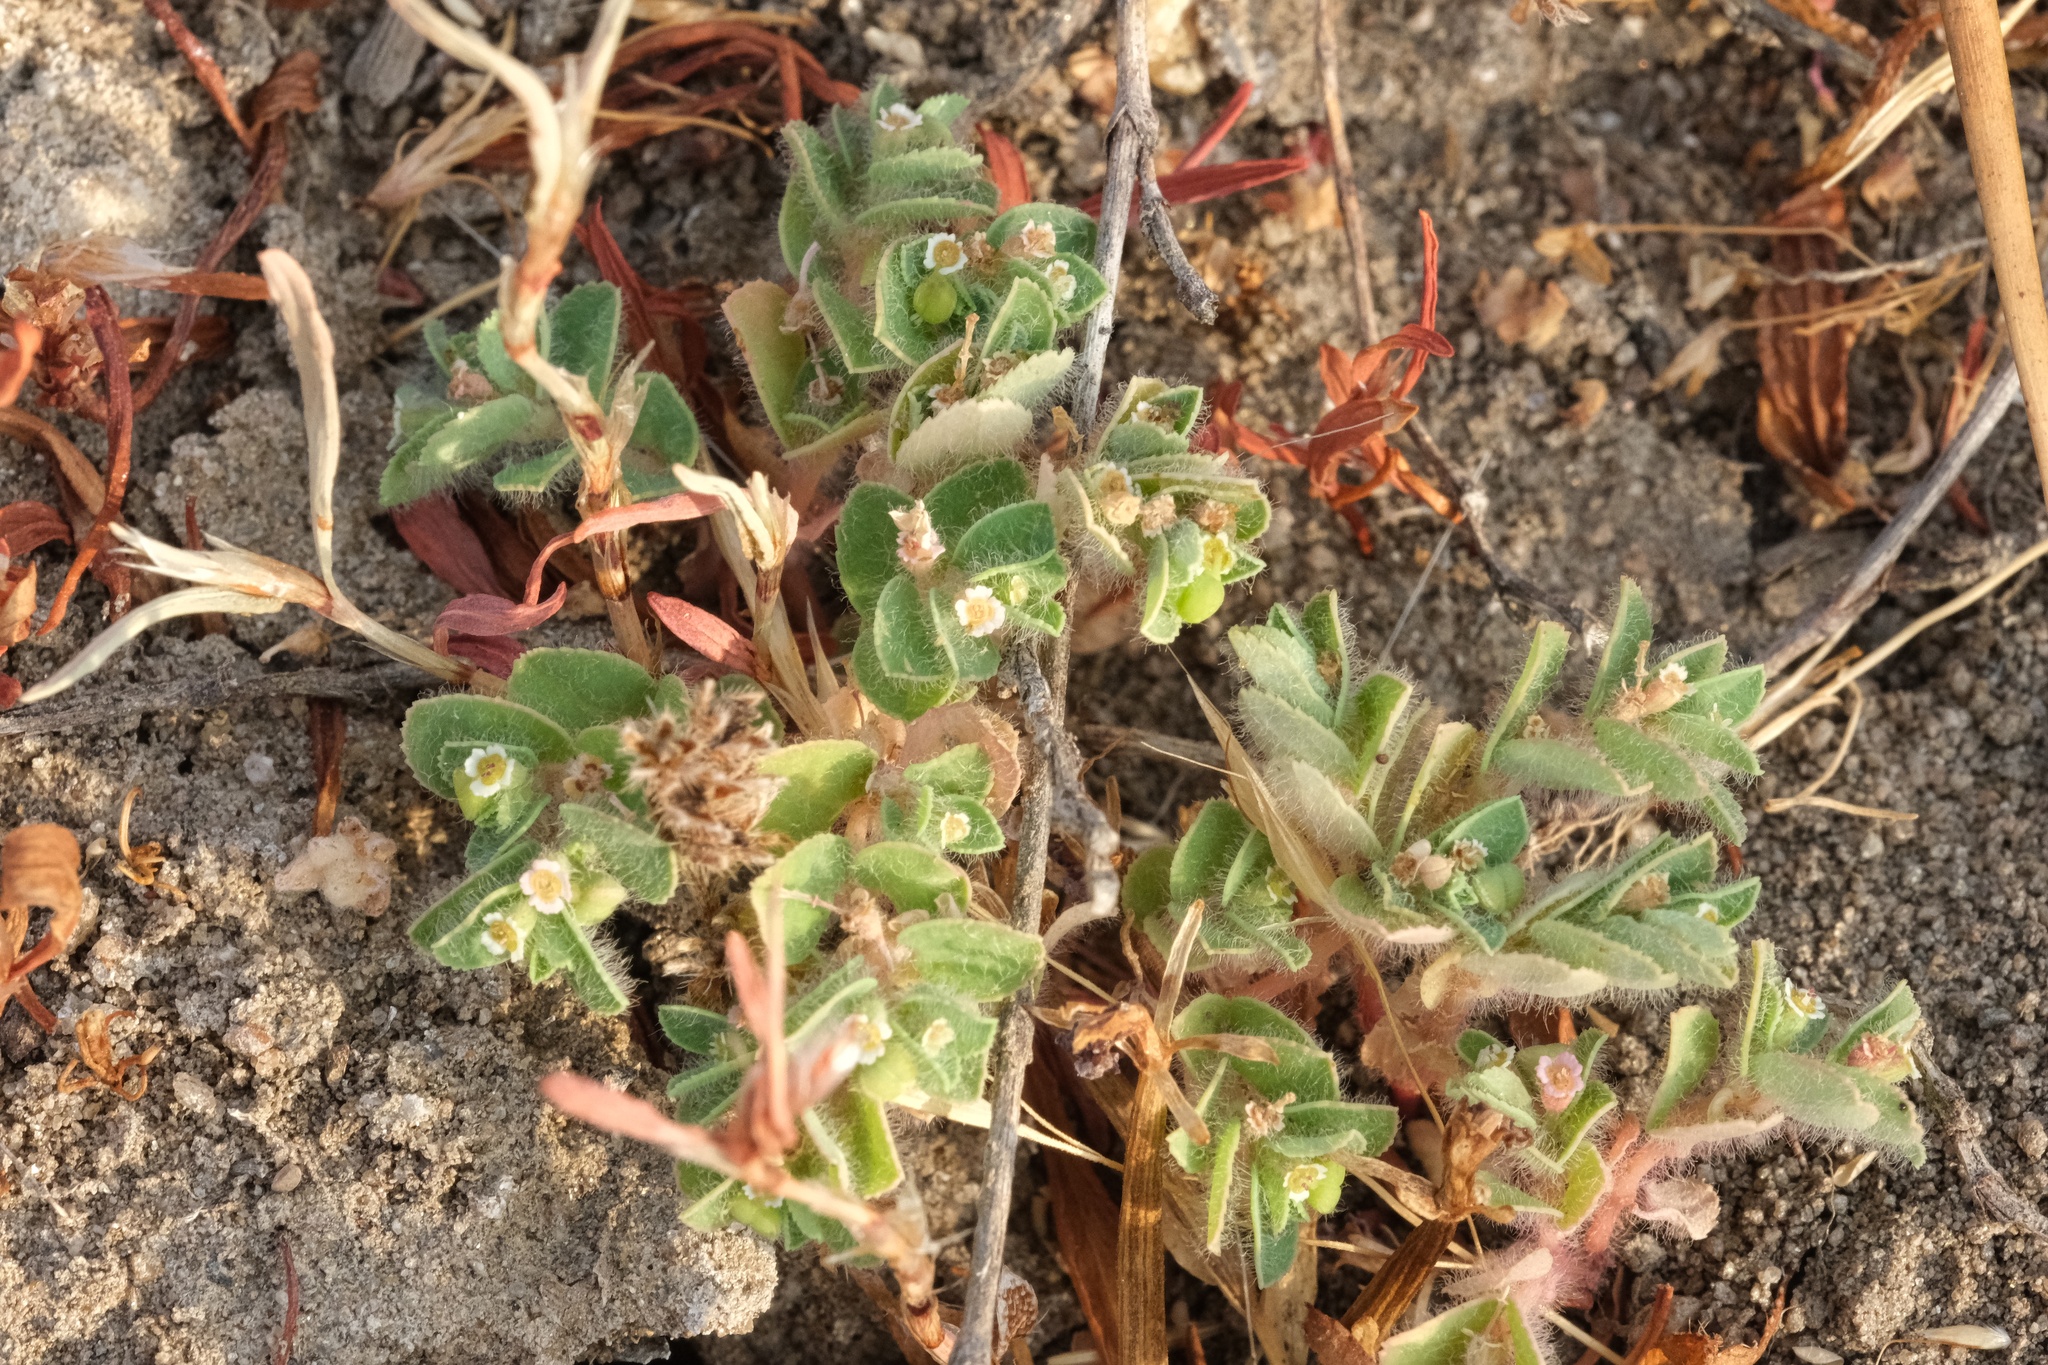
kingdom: Plantae
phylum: Tracheophyta
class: Magnoliopsida
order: Malpighiales
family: Euphorbiaceae
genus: Euphorbia
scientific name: Euphorbia serpillifolia
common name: Thyme-leaf spurge
